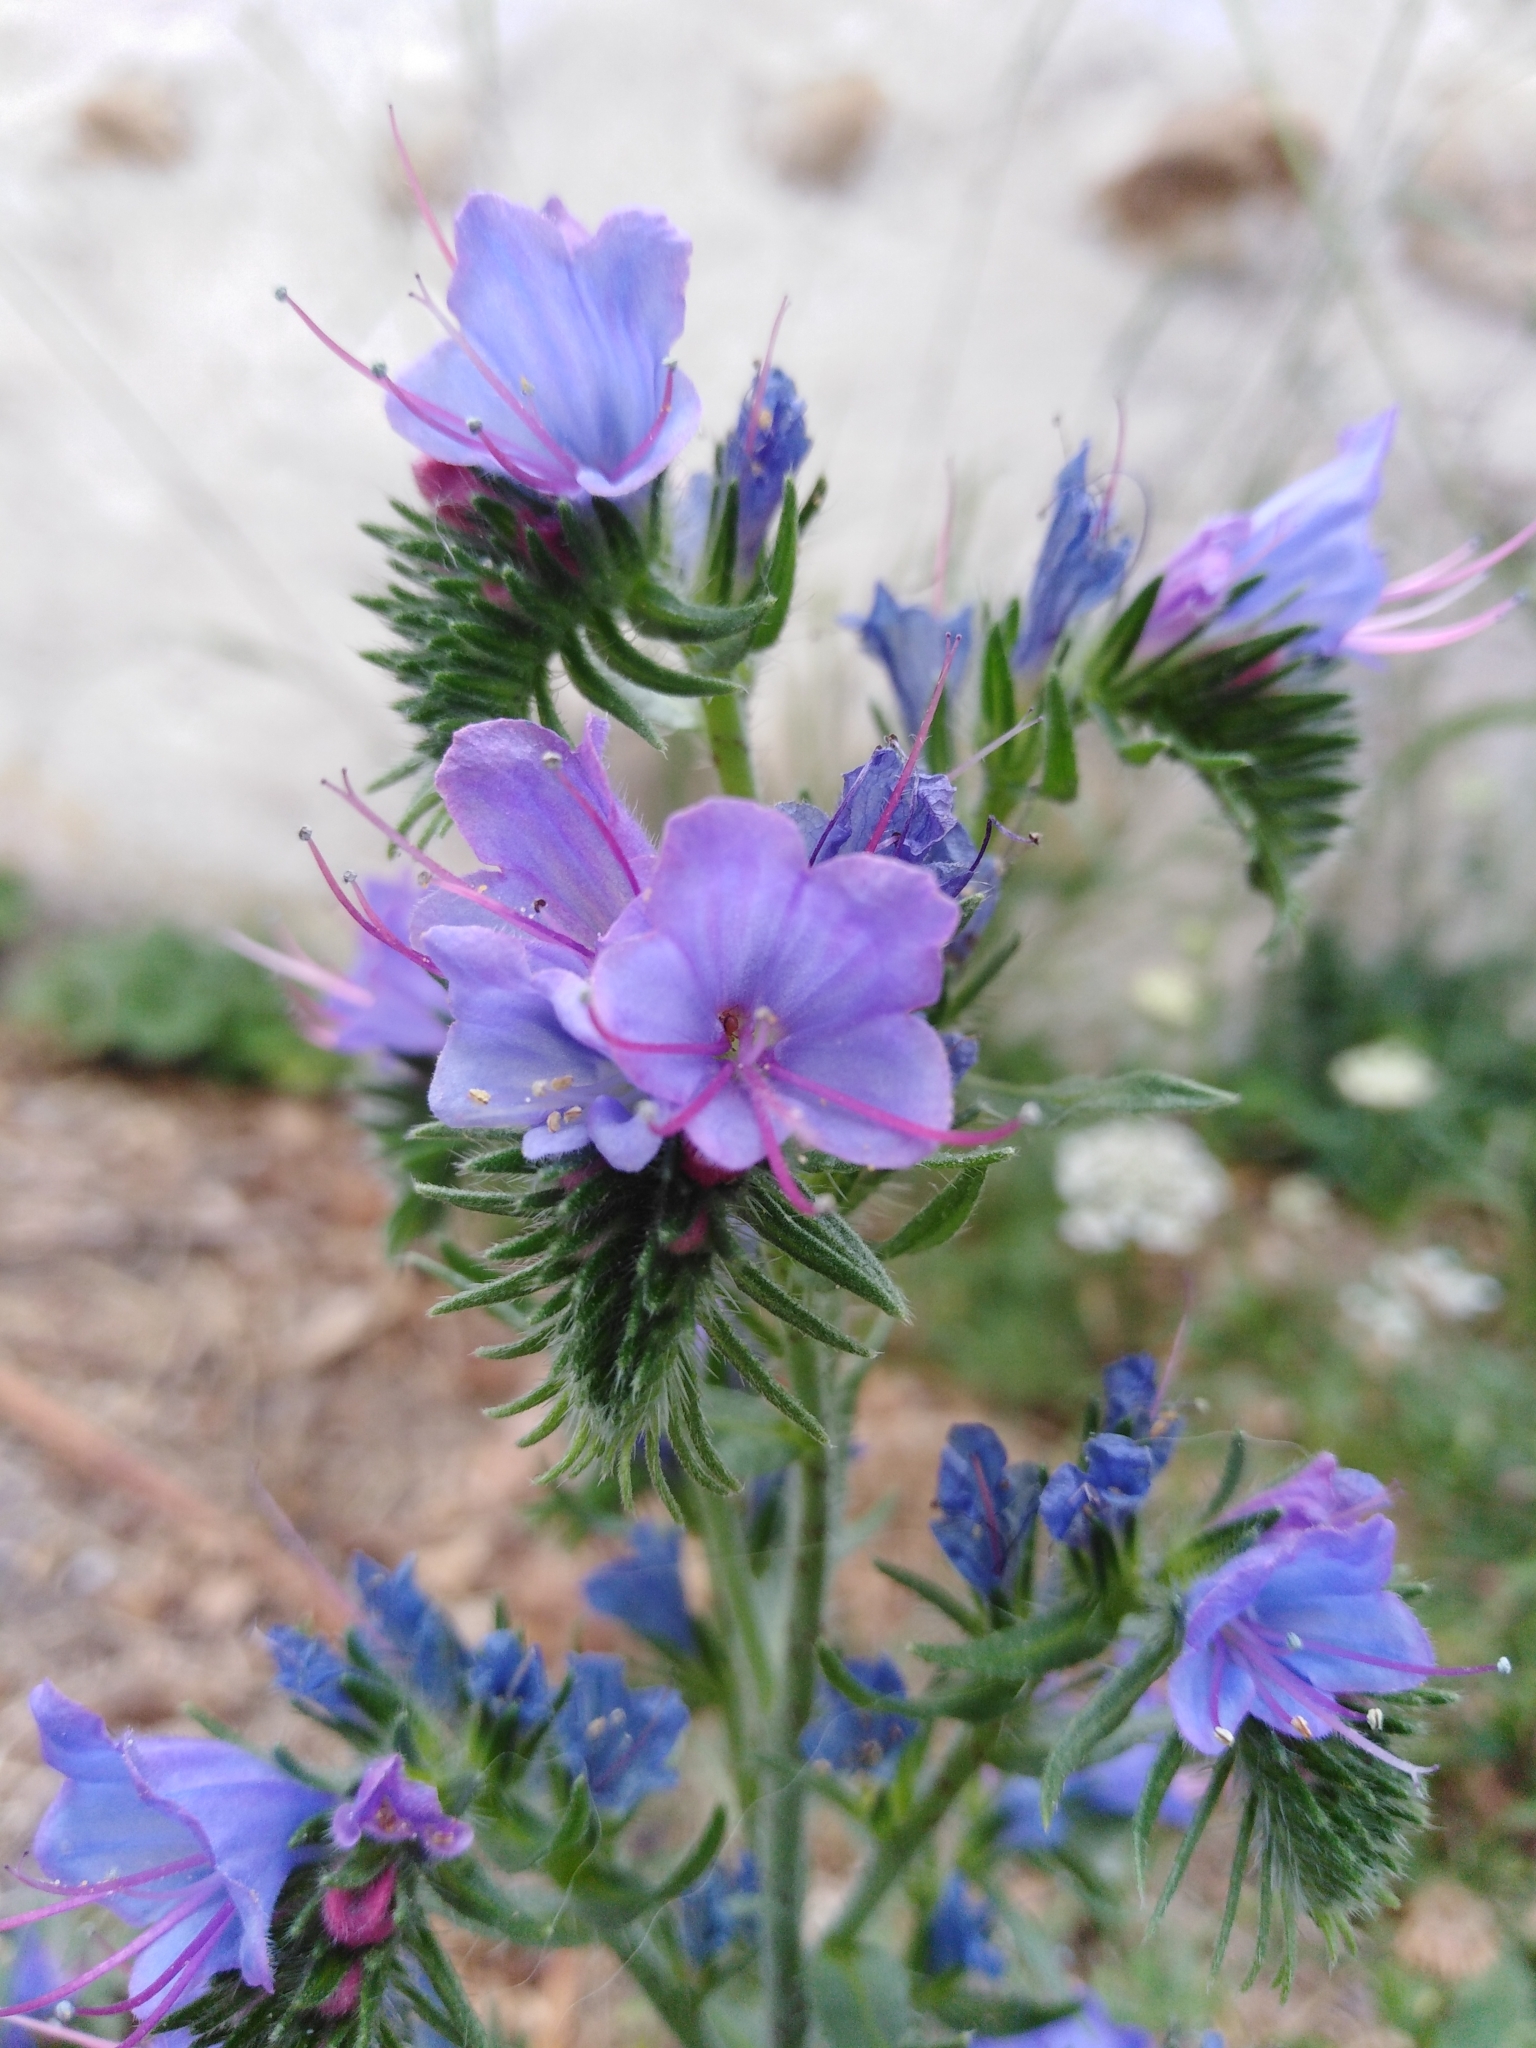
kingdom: Plantae
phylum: Tracheophyta
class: Magnoliopsida
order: Boraginales
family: Boraginaceae
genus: Echium
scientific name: Echium vulgare
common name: Common viper's bugloss
